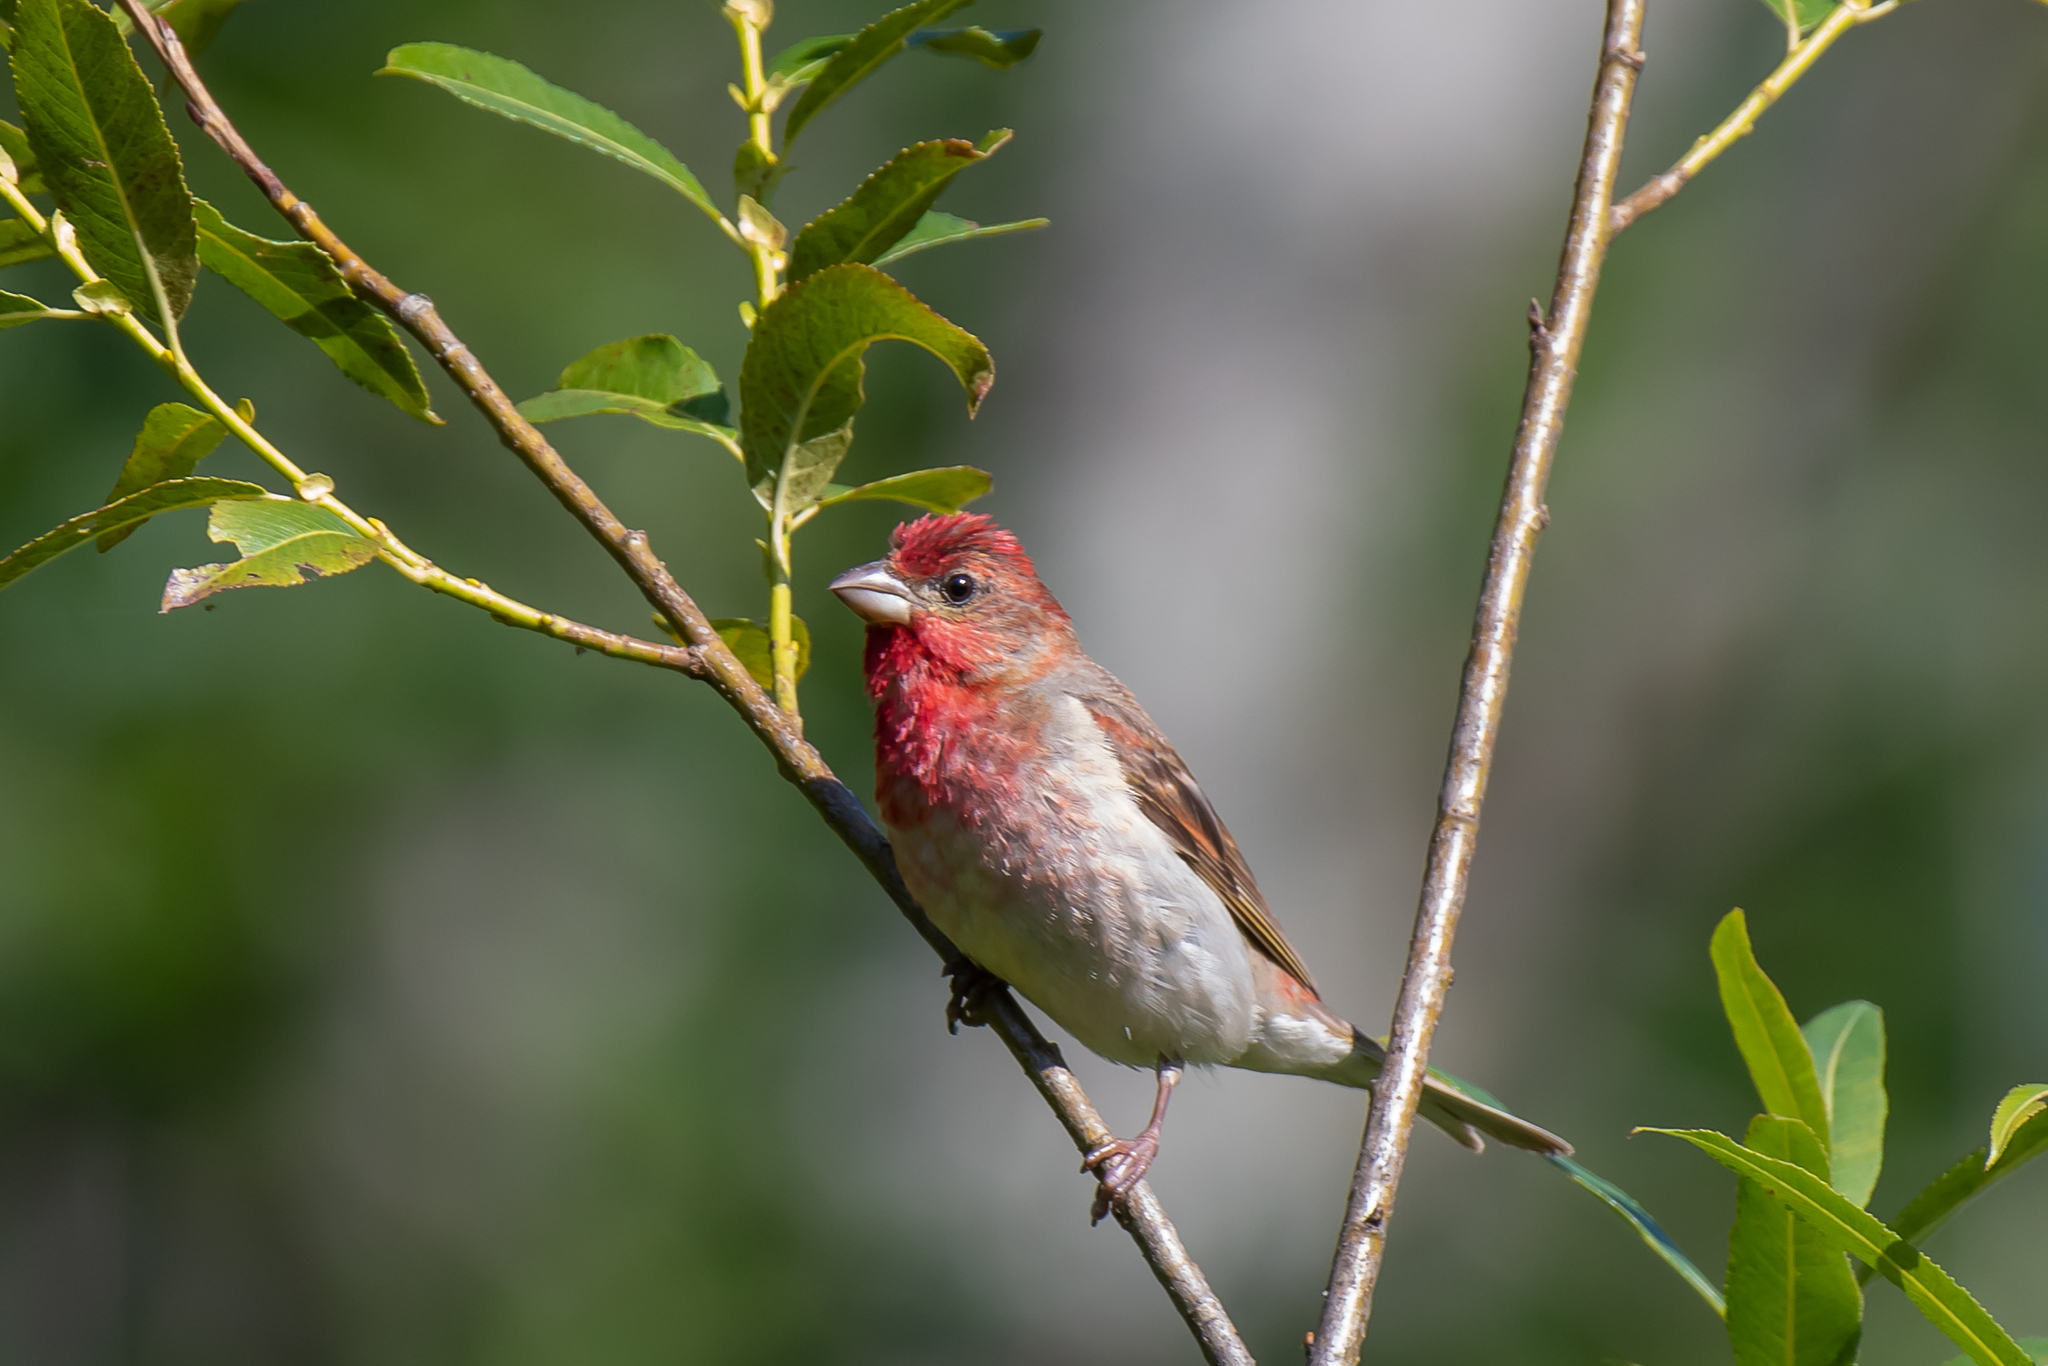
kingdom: Animalia
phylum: Chordata
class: Aves
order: Passeriformes
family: Fringillidae
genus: Carpodacus
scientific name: Carpodacus erythrinus
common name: Common rosefinch
